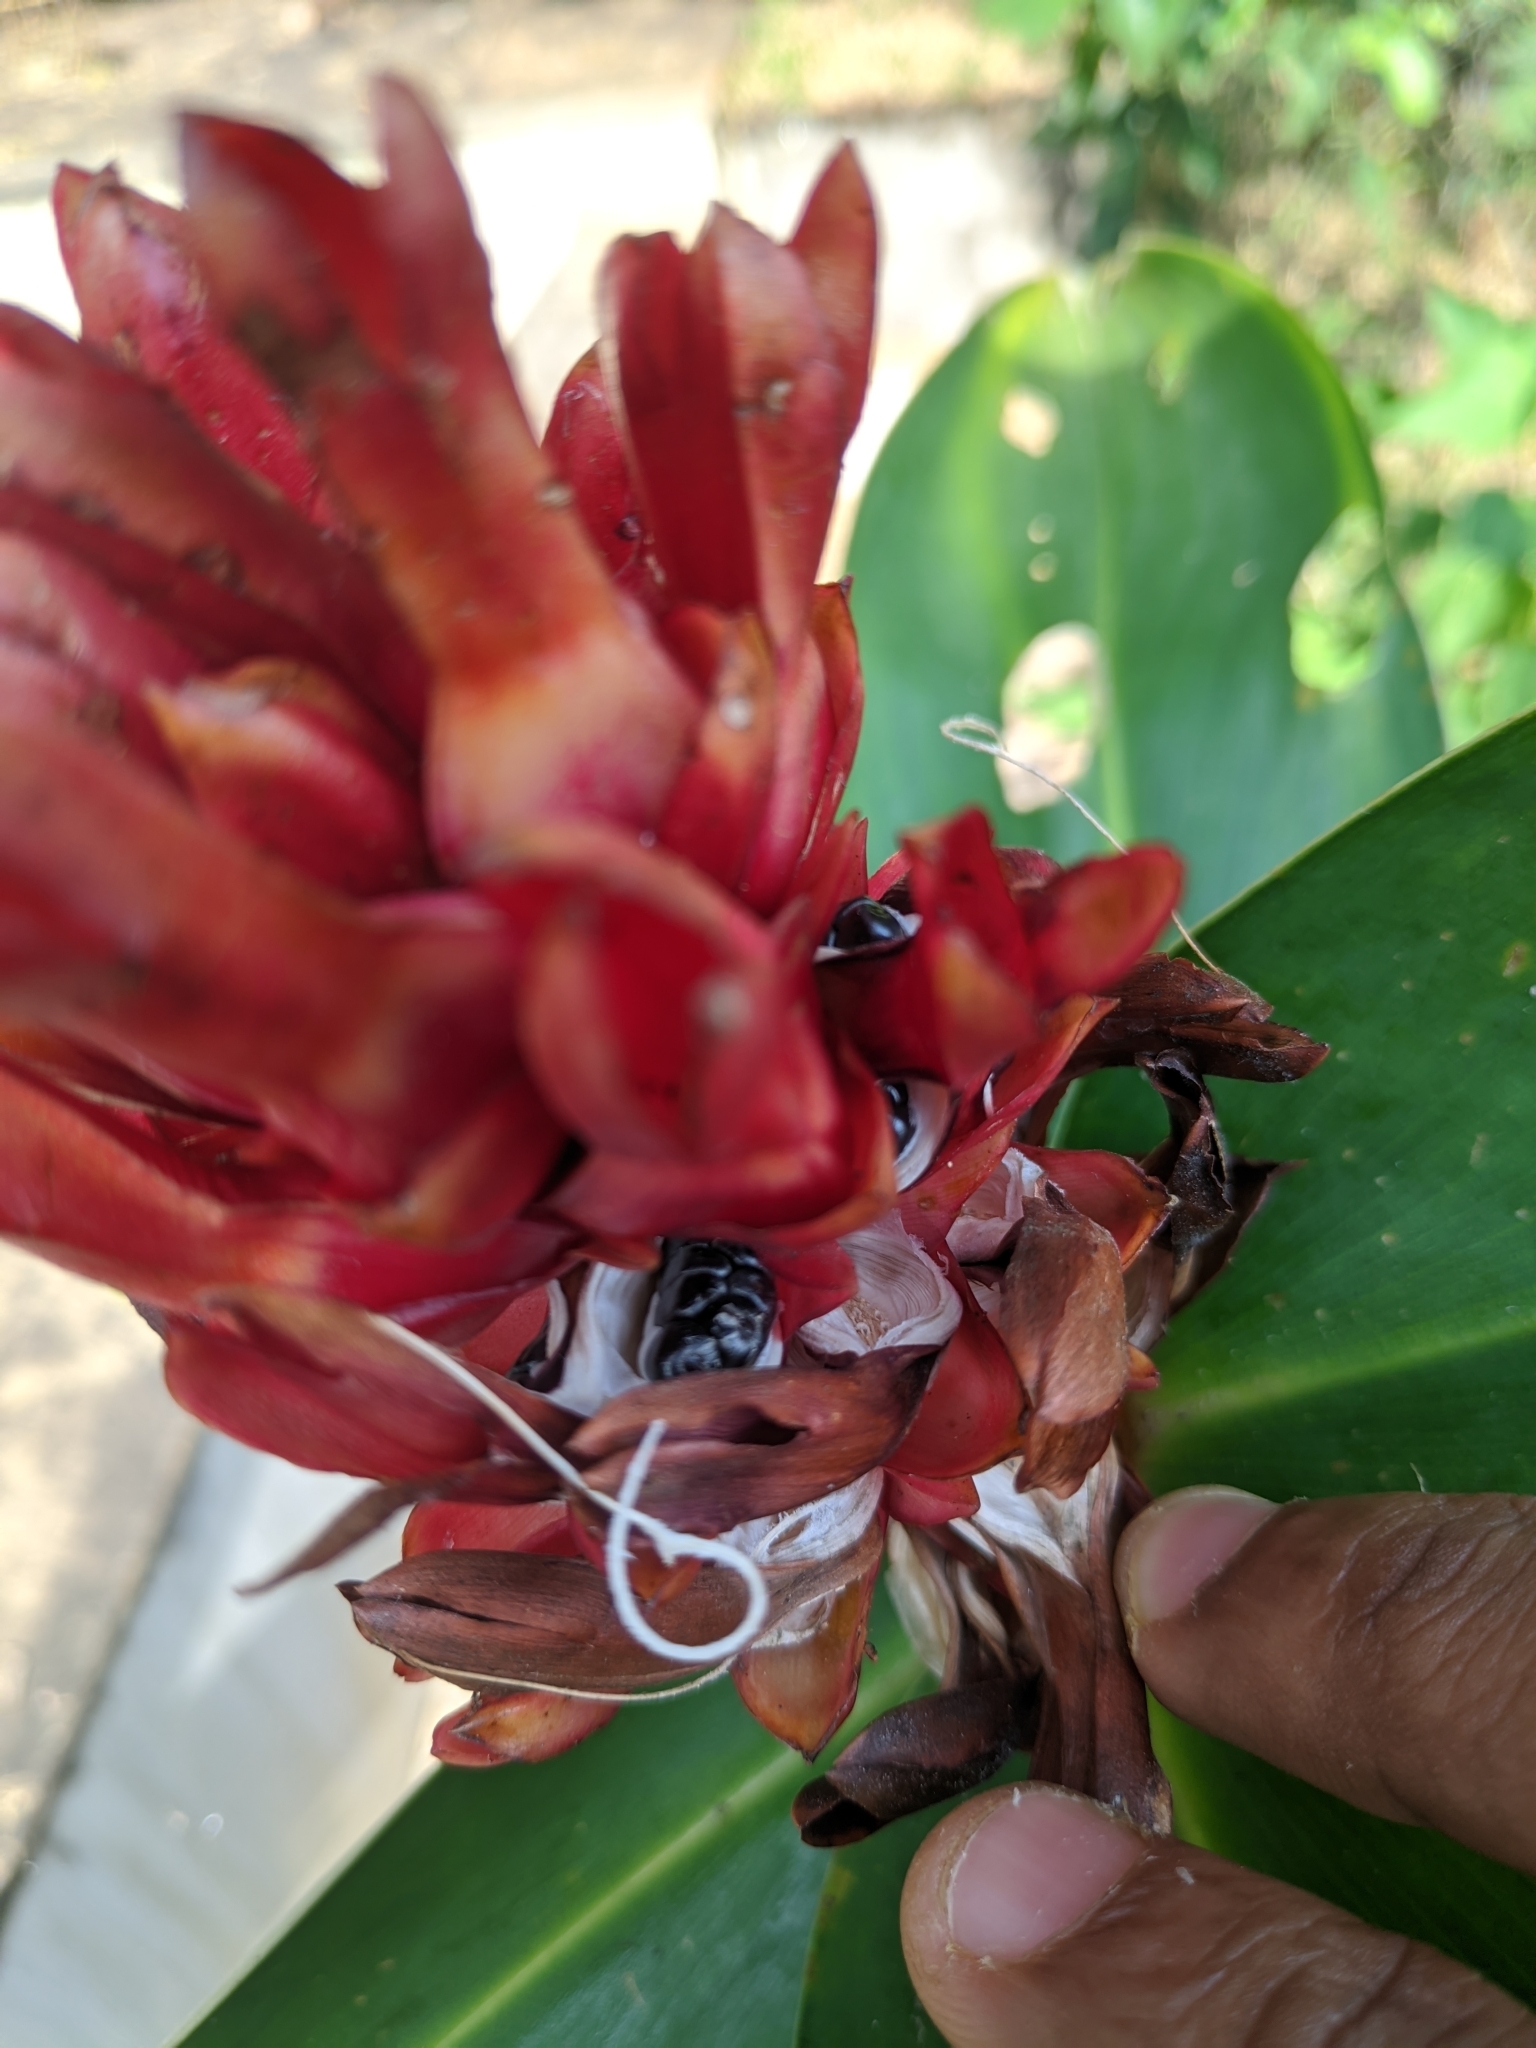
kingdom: Plantae
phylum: Tracheophyta
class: Liliopsida
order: Zingiberales
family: Costaceae
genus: Hellenia
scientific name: Hellenia speciosa
